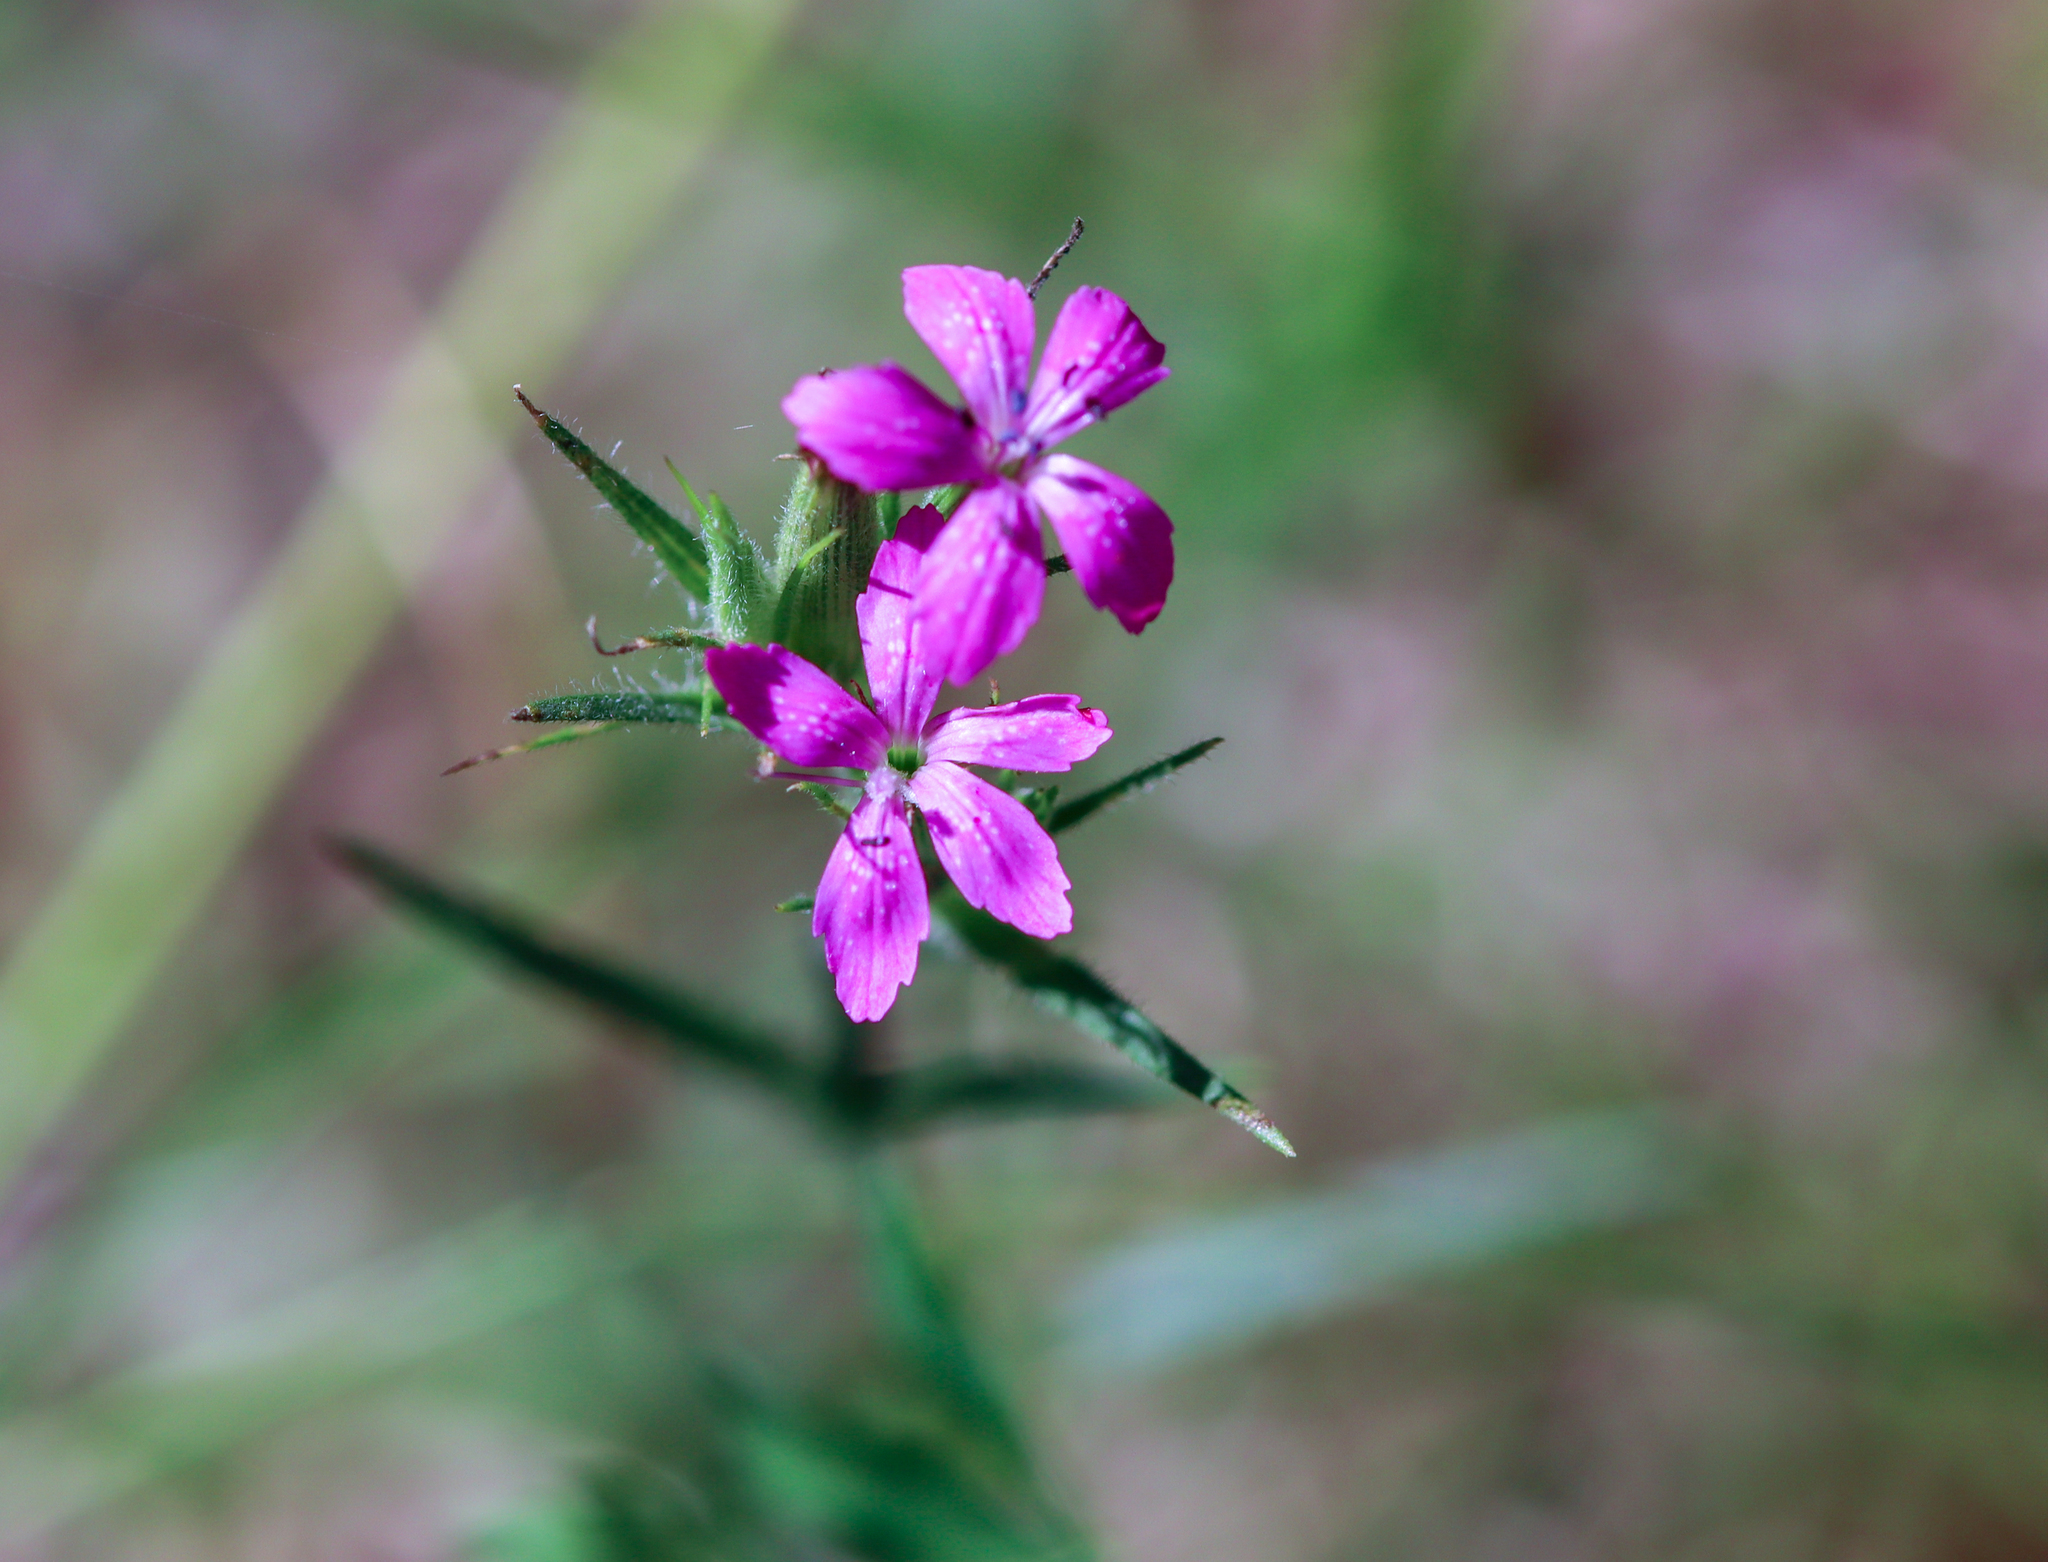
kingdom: Plantae
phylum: Tracheophyta
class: Magnoliopsida
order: Caryophyllales
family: Caryophyllaceae
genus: Dianthus
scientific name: Dianthus armeria
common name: Deptford pink
